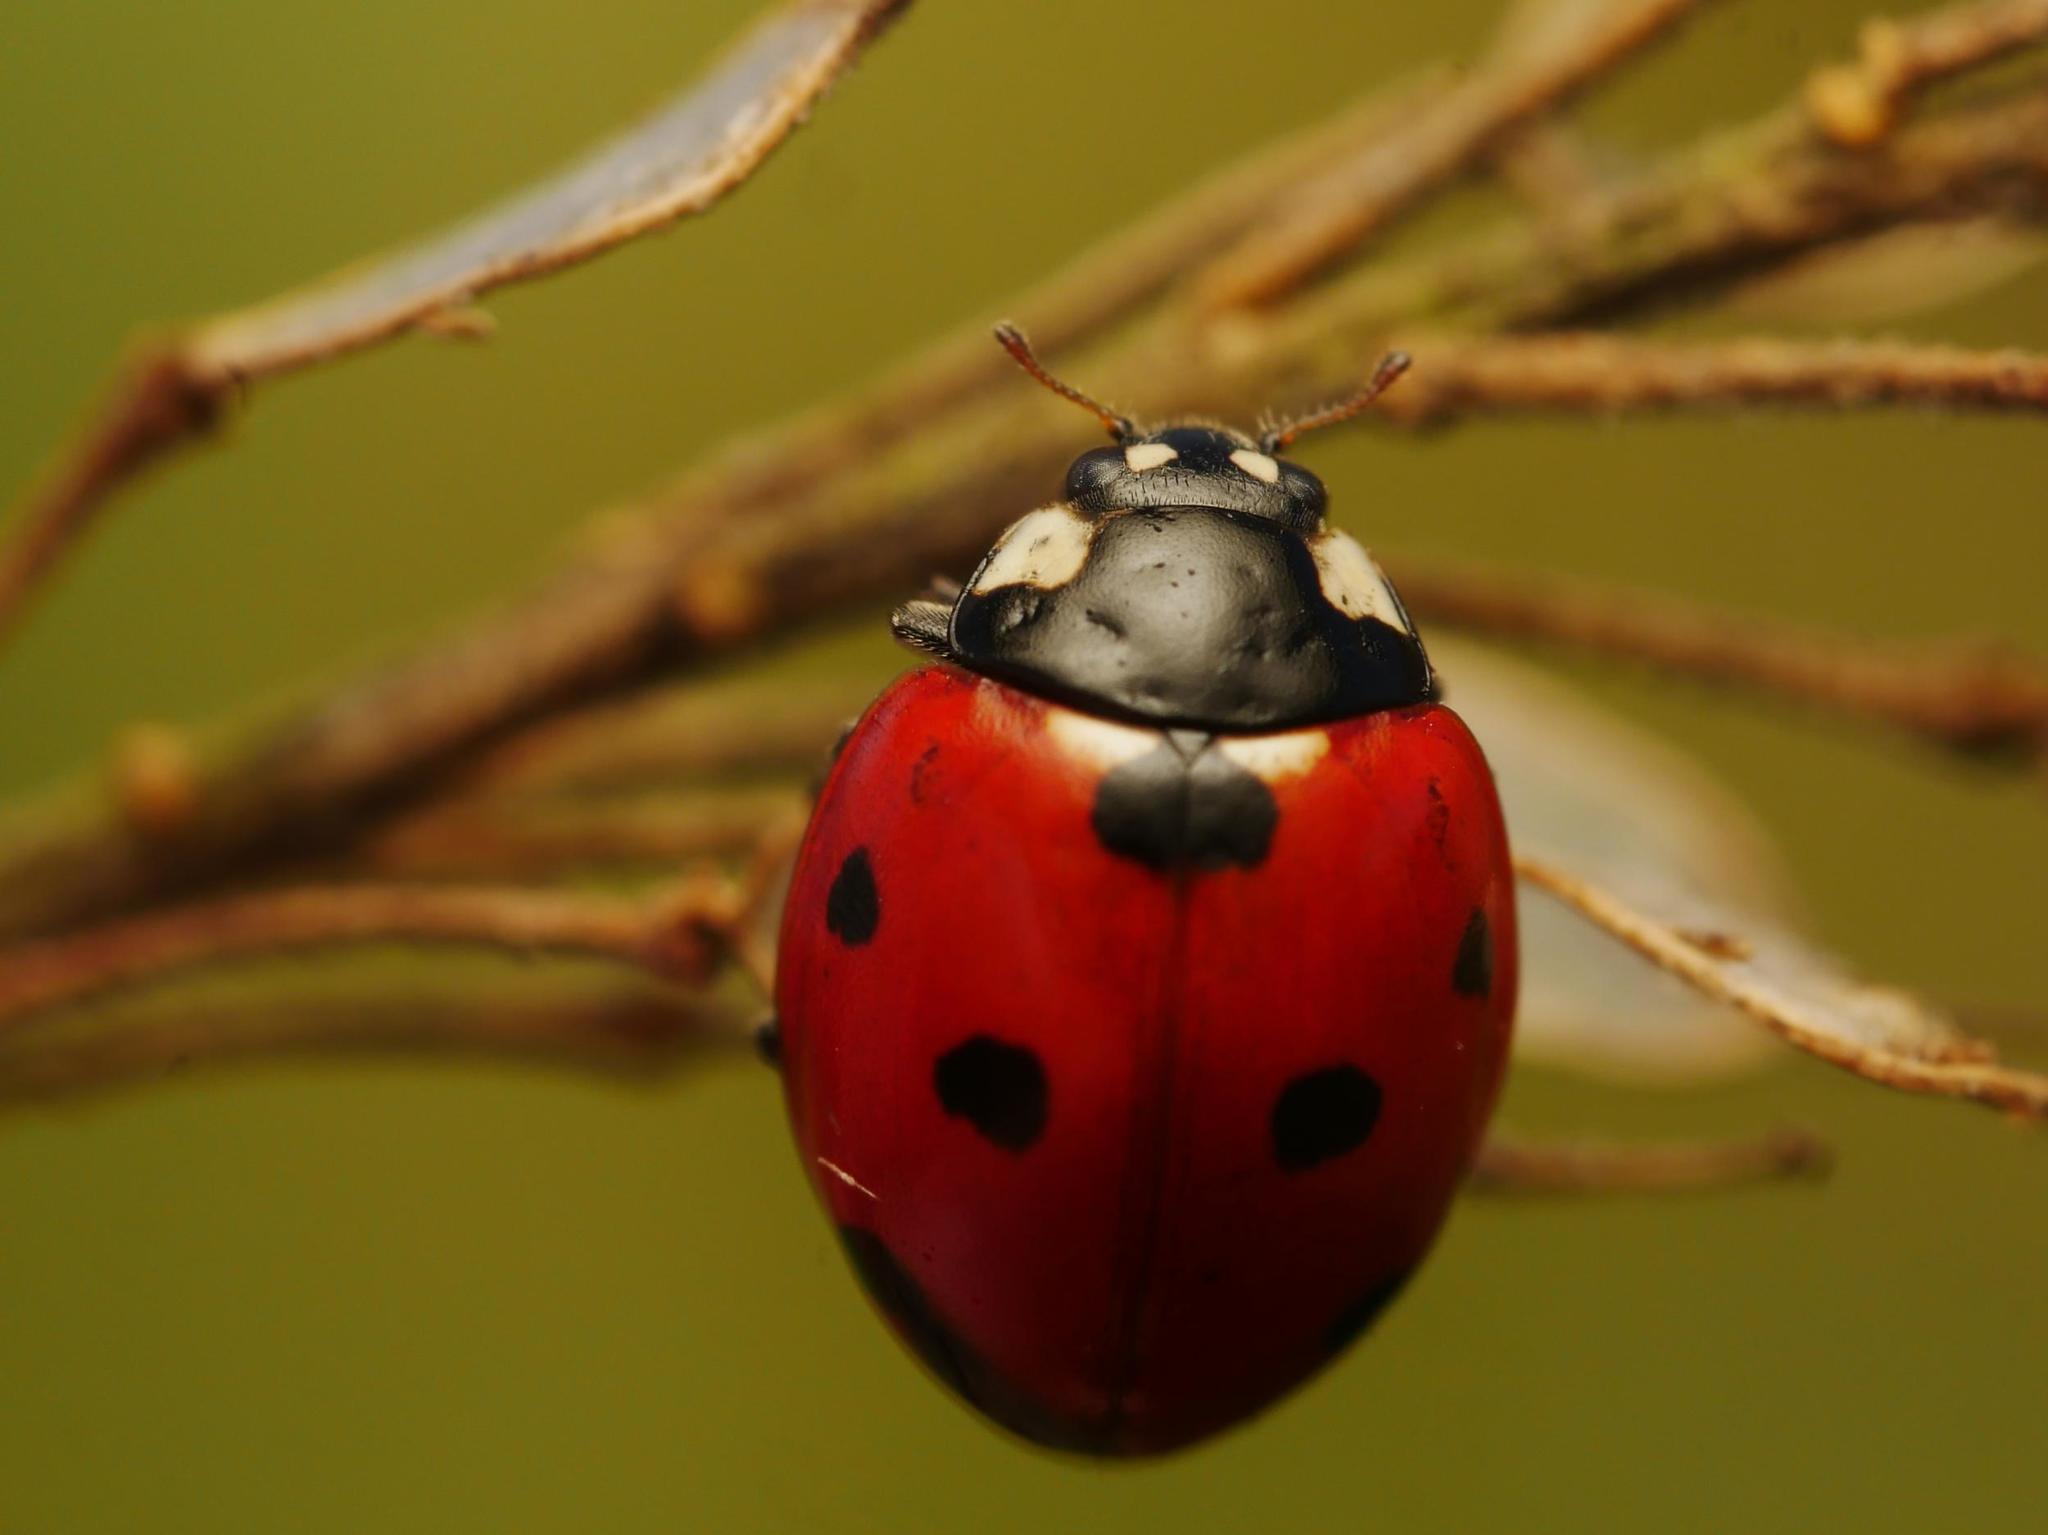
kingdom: Animalia
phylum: Arthropoda
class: Insecta
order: Coleoptera
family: Coccinellidae
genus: Coccinella
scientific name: Coccinella septempunctata
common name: Sevenspotted lady beetle
